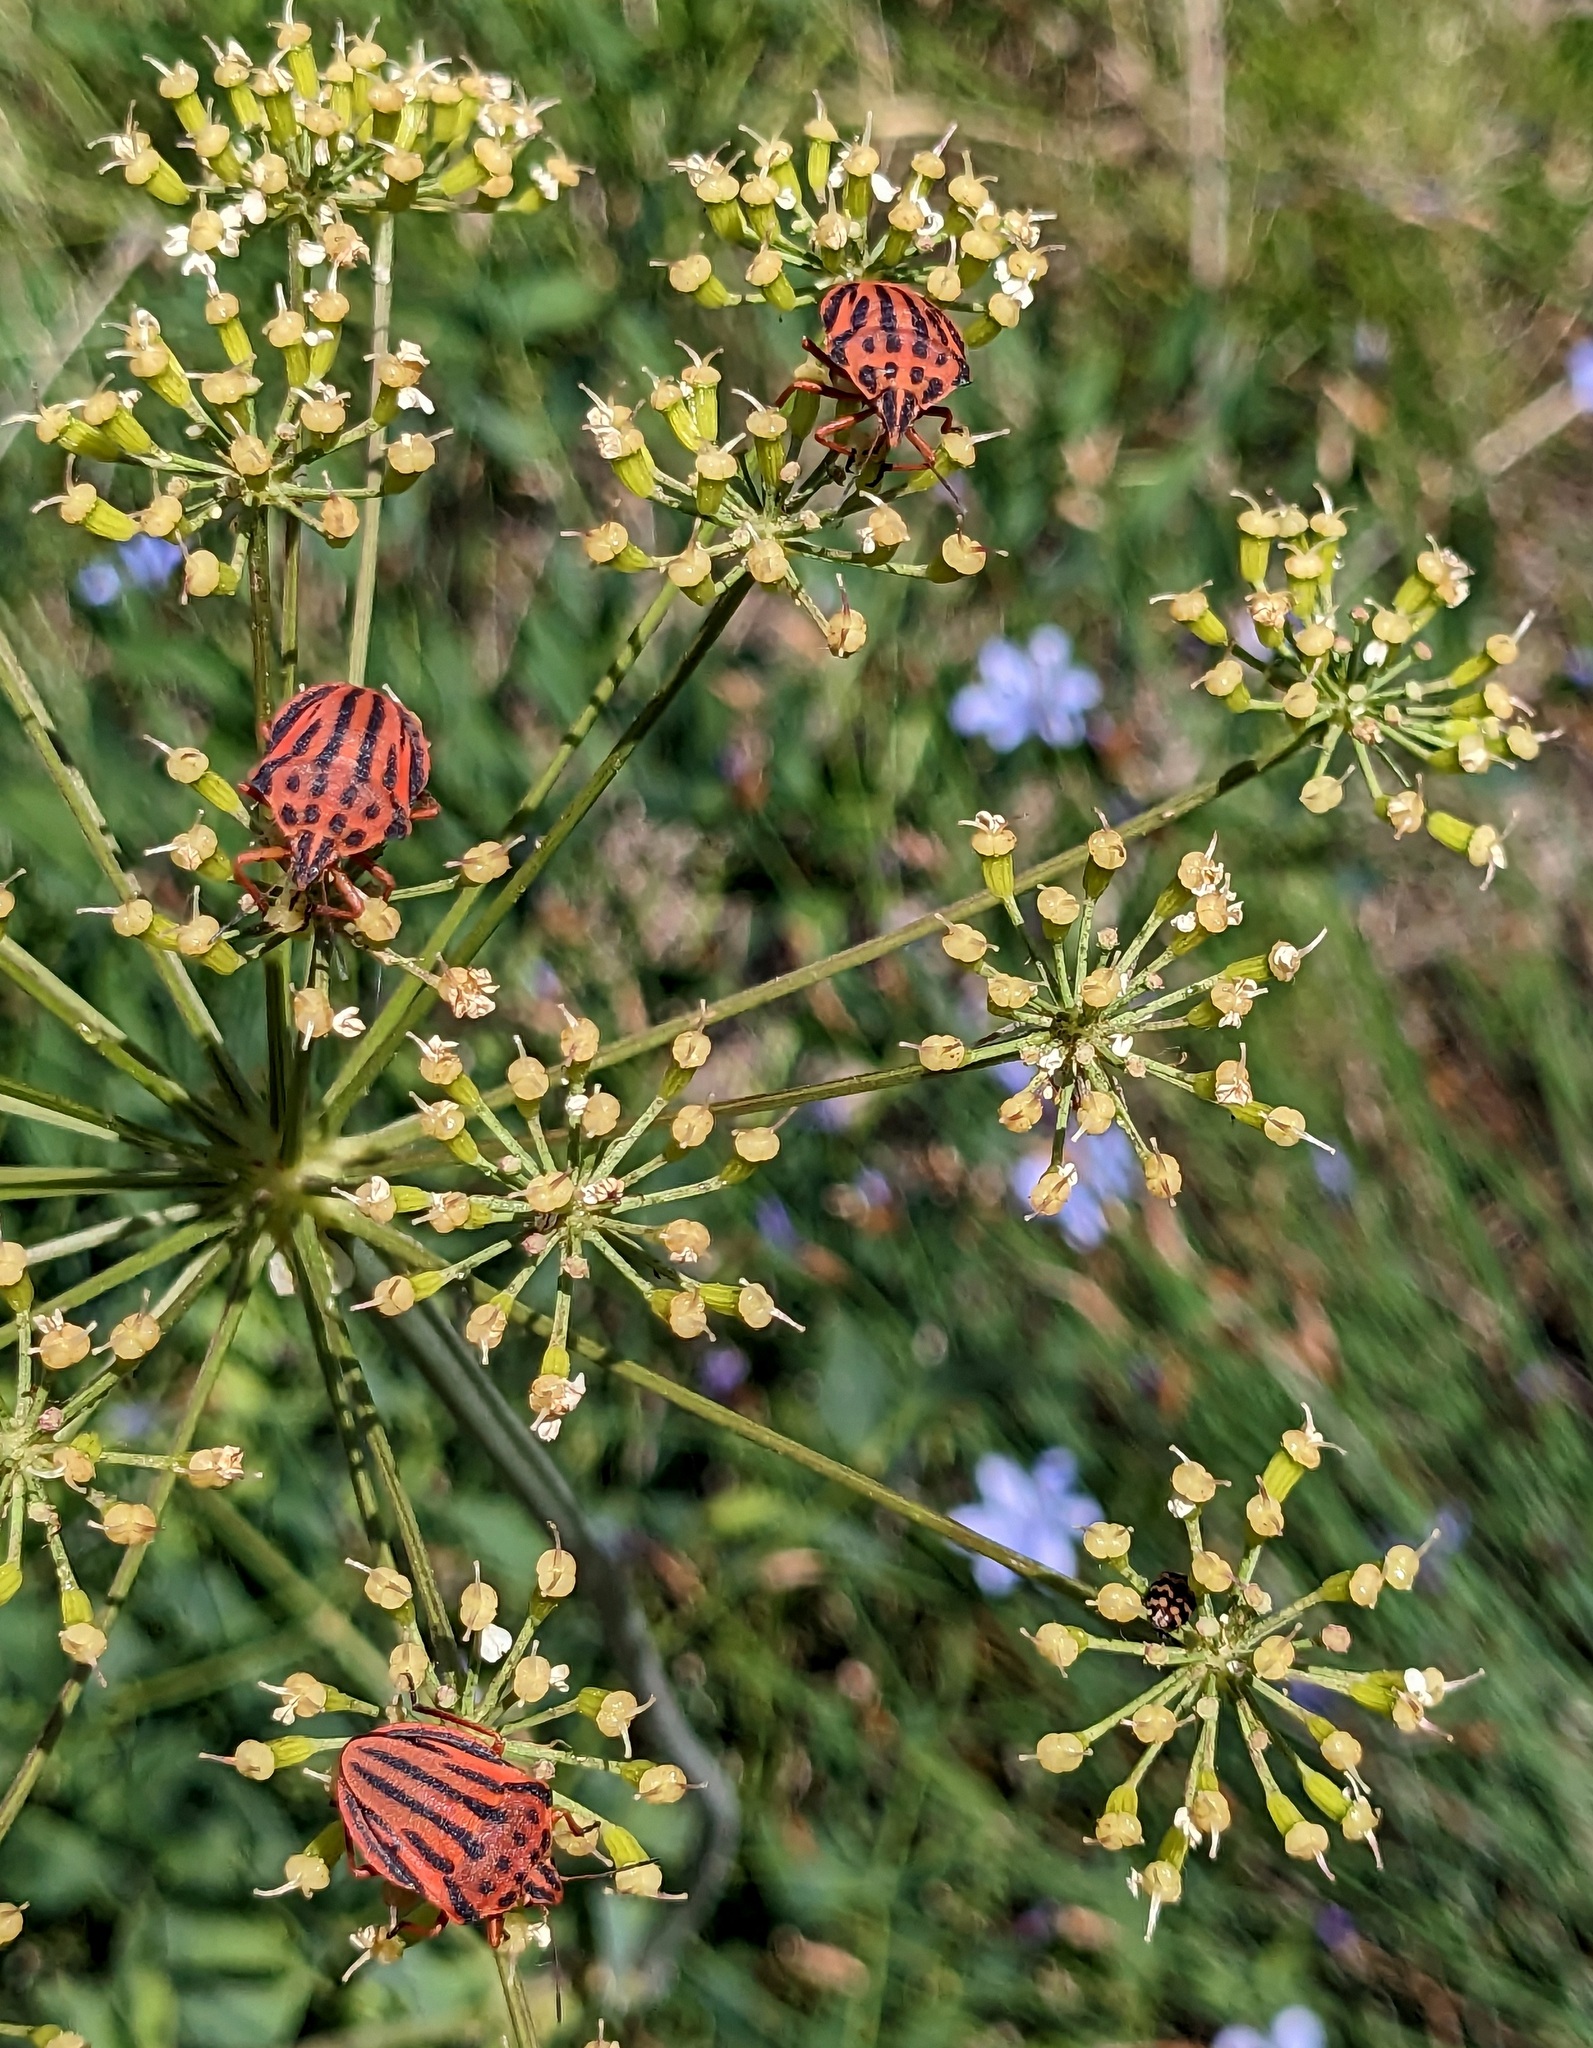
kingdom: Animalia
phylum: Arthropoda
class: Insecta
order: Hemiptera
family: Pentatomidae
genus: Graphosoma
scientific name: Graphosoma semipunctatum
